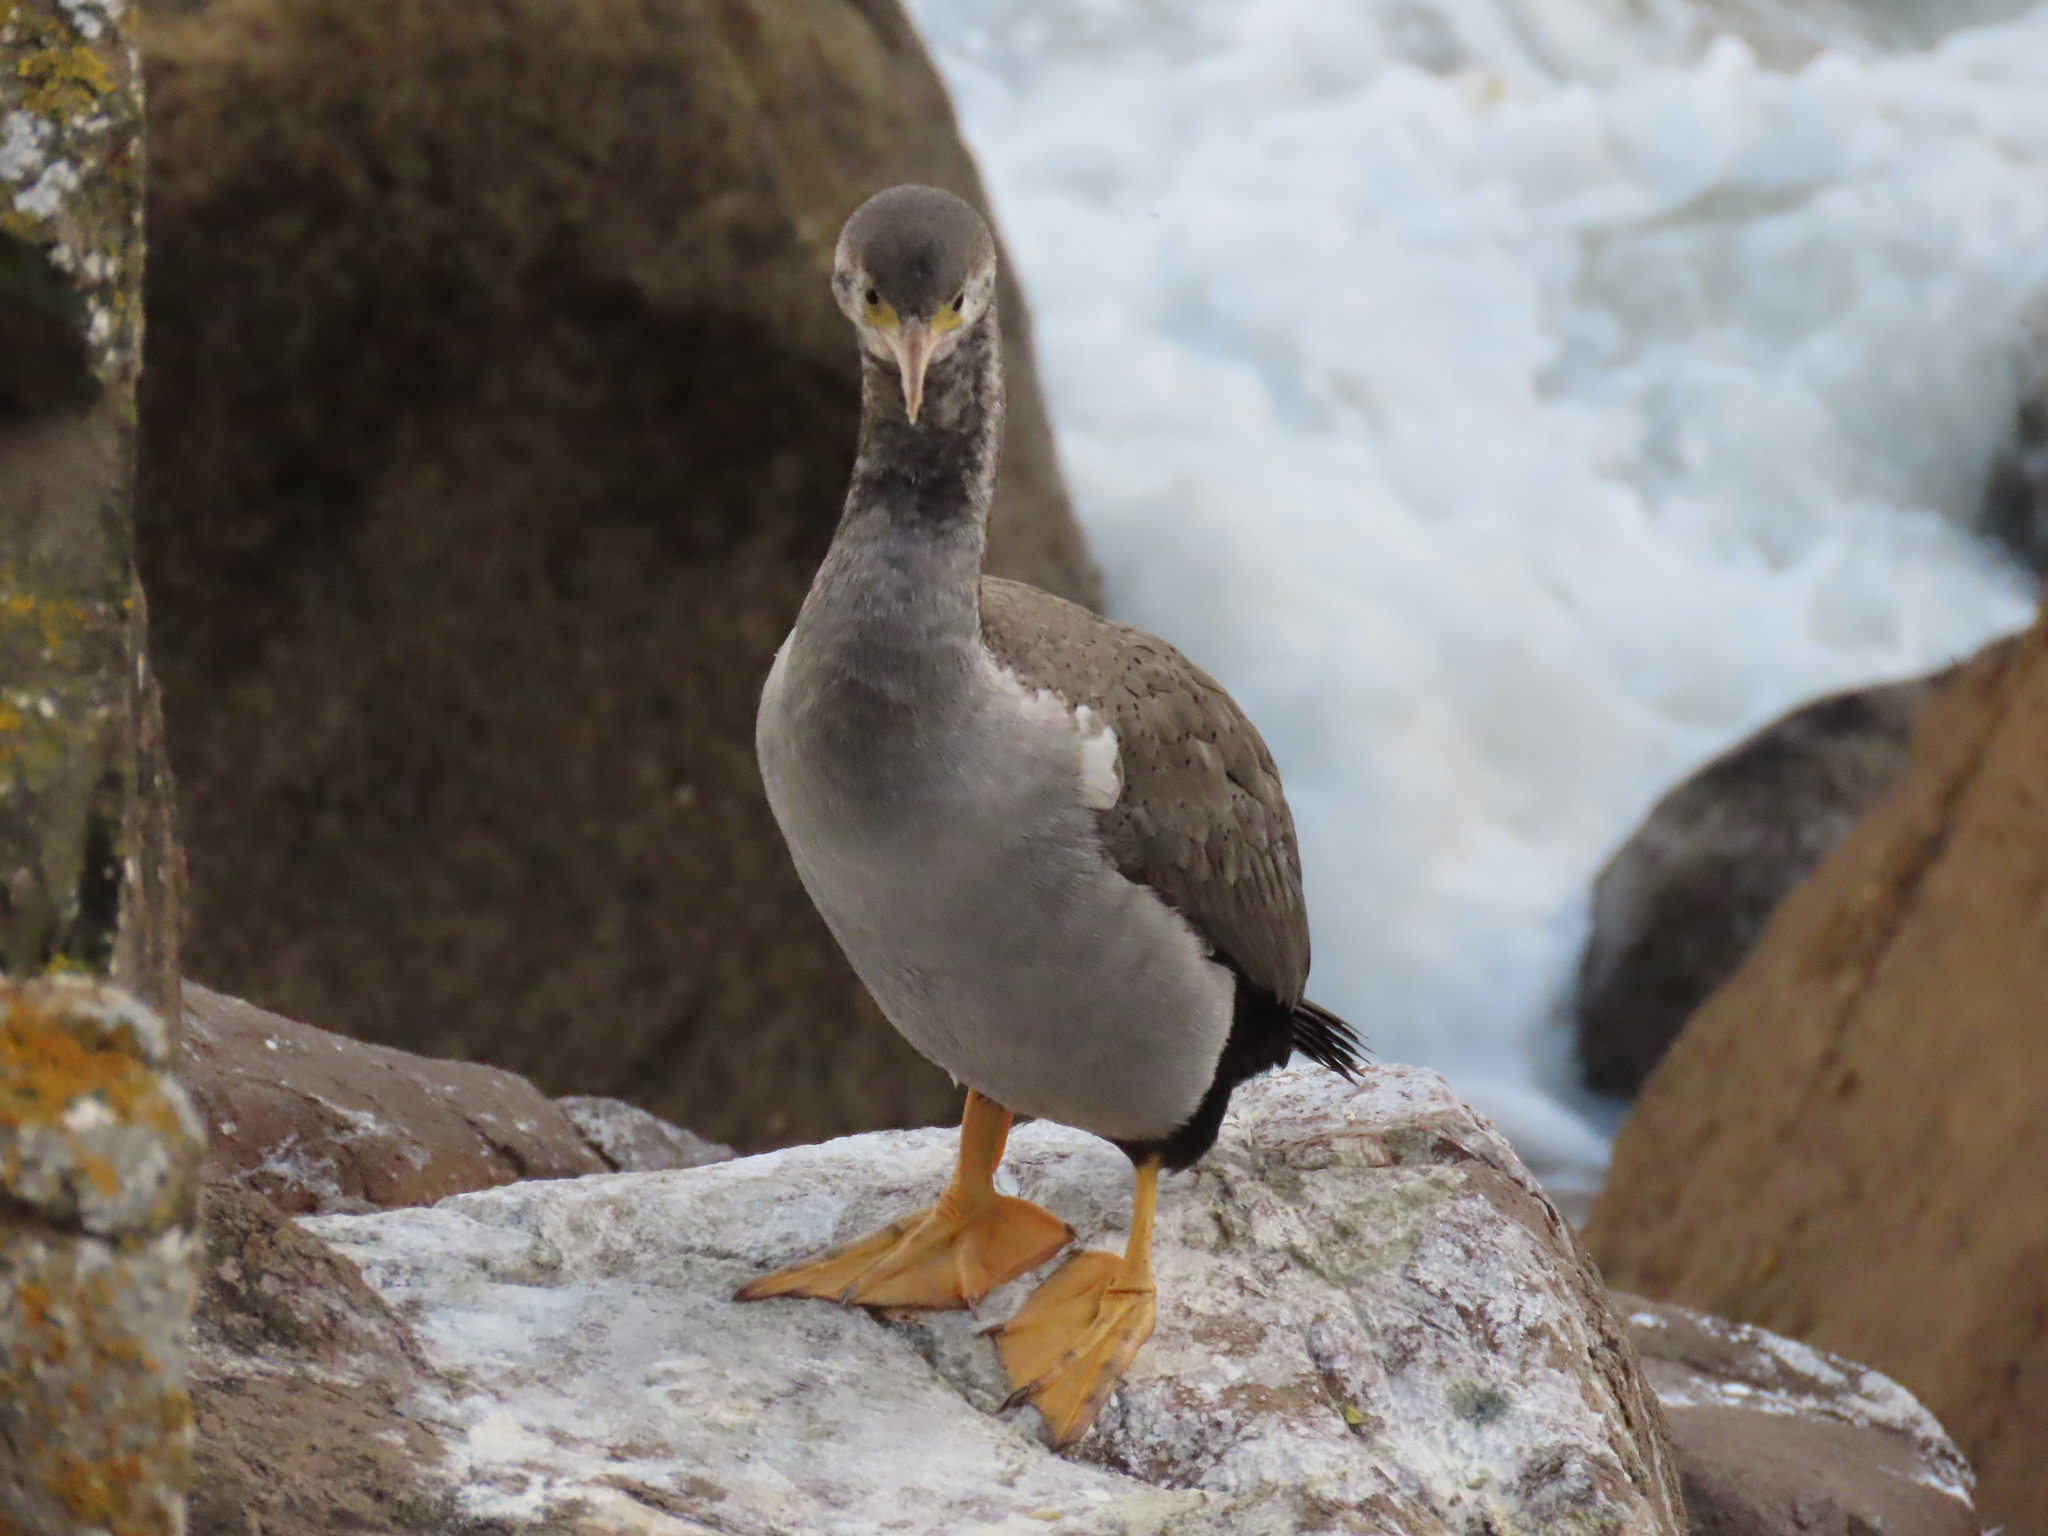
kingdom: Animalia
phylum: Chordata
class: Aves
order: Suliformes
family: Phalacrocoracidae
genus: Phalacrocorax
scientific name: Phalacrocorax punctatus
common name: Spotted shag
